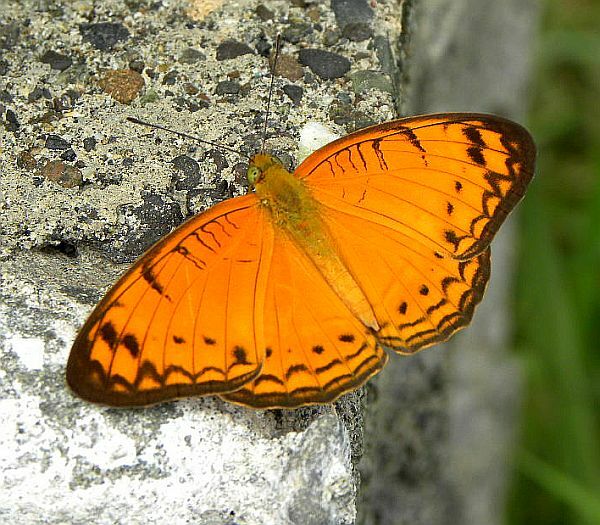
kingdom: Animalia
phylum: Arthropoda
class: Insecta
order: Lepidoptera
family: Nymphalidae
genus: Phalanta
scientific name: Phalanta alcippe
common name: Small leopard
